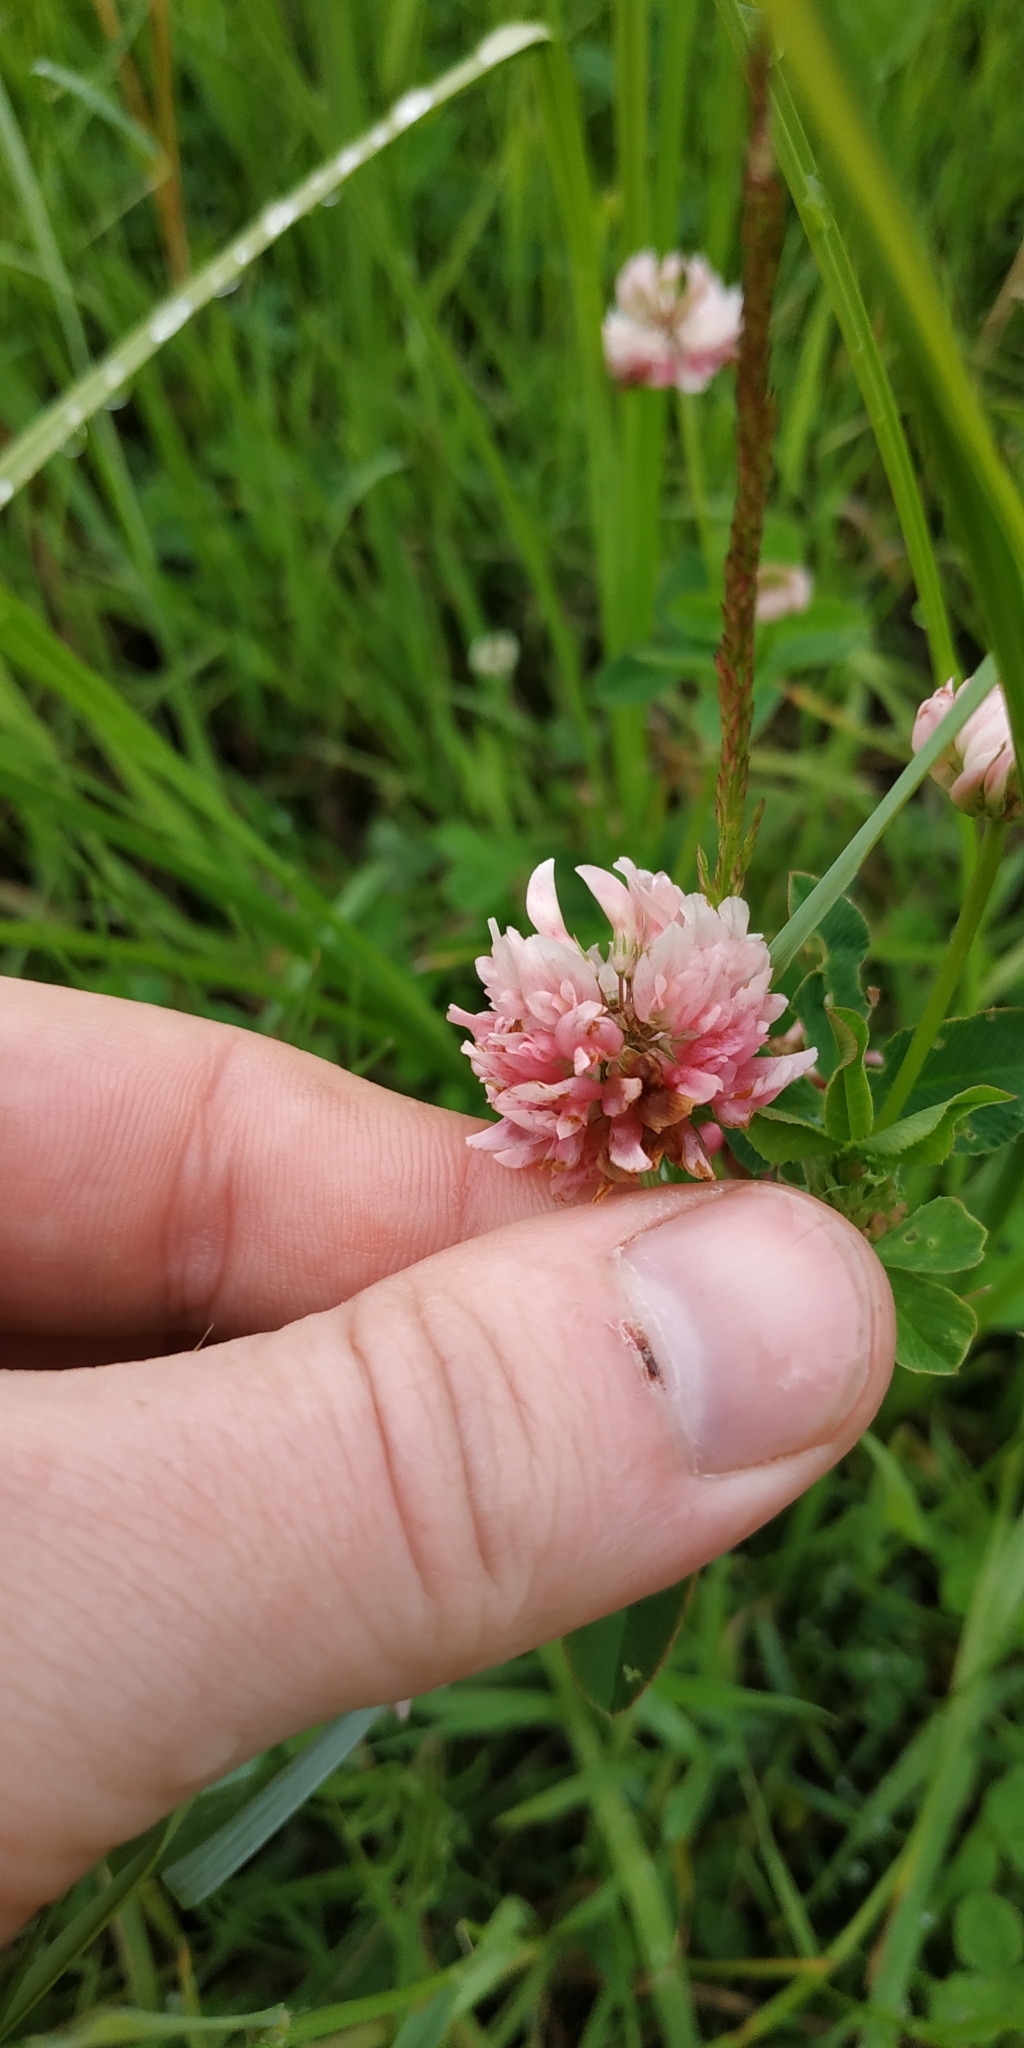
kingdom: Plantae
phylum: Tracheophyta
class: Magnoliopsida
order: Fabales
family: Fabaceae
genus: Trifolium
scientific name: Trifolium hybridum
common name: Alsike clover
